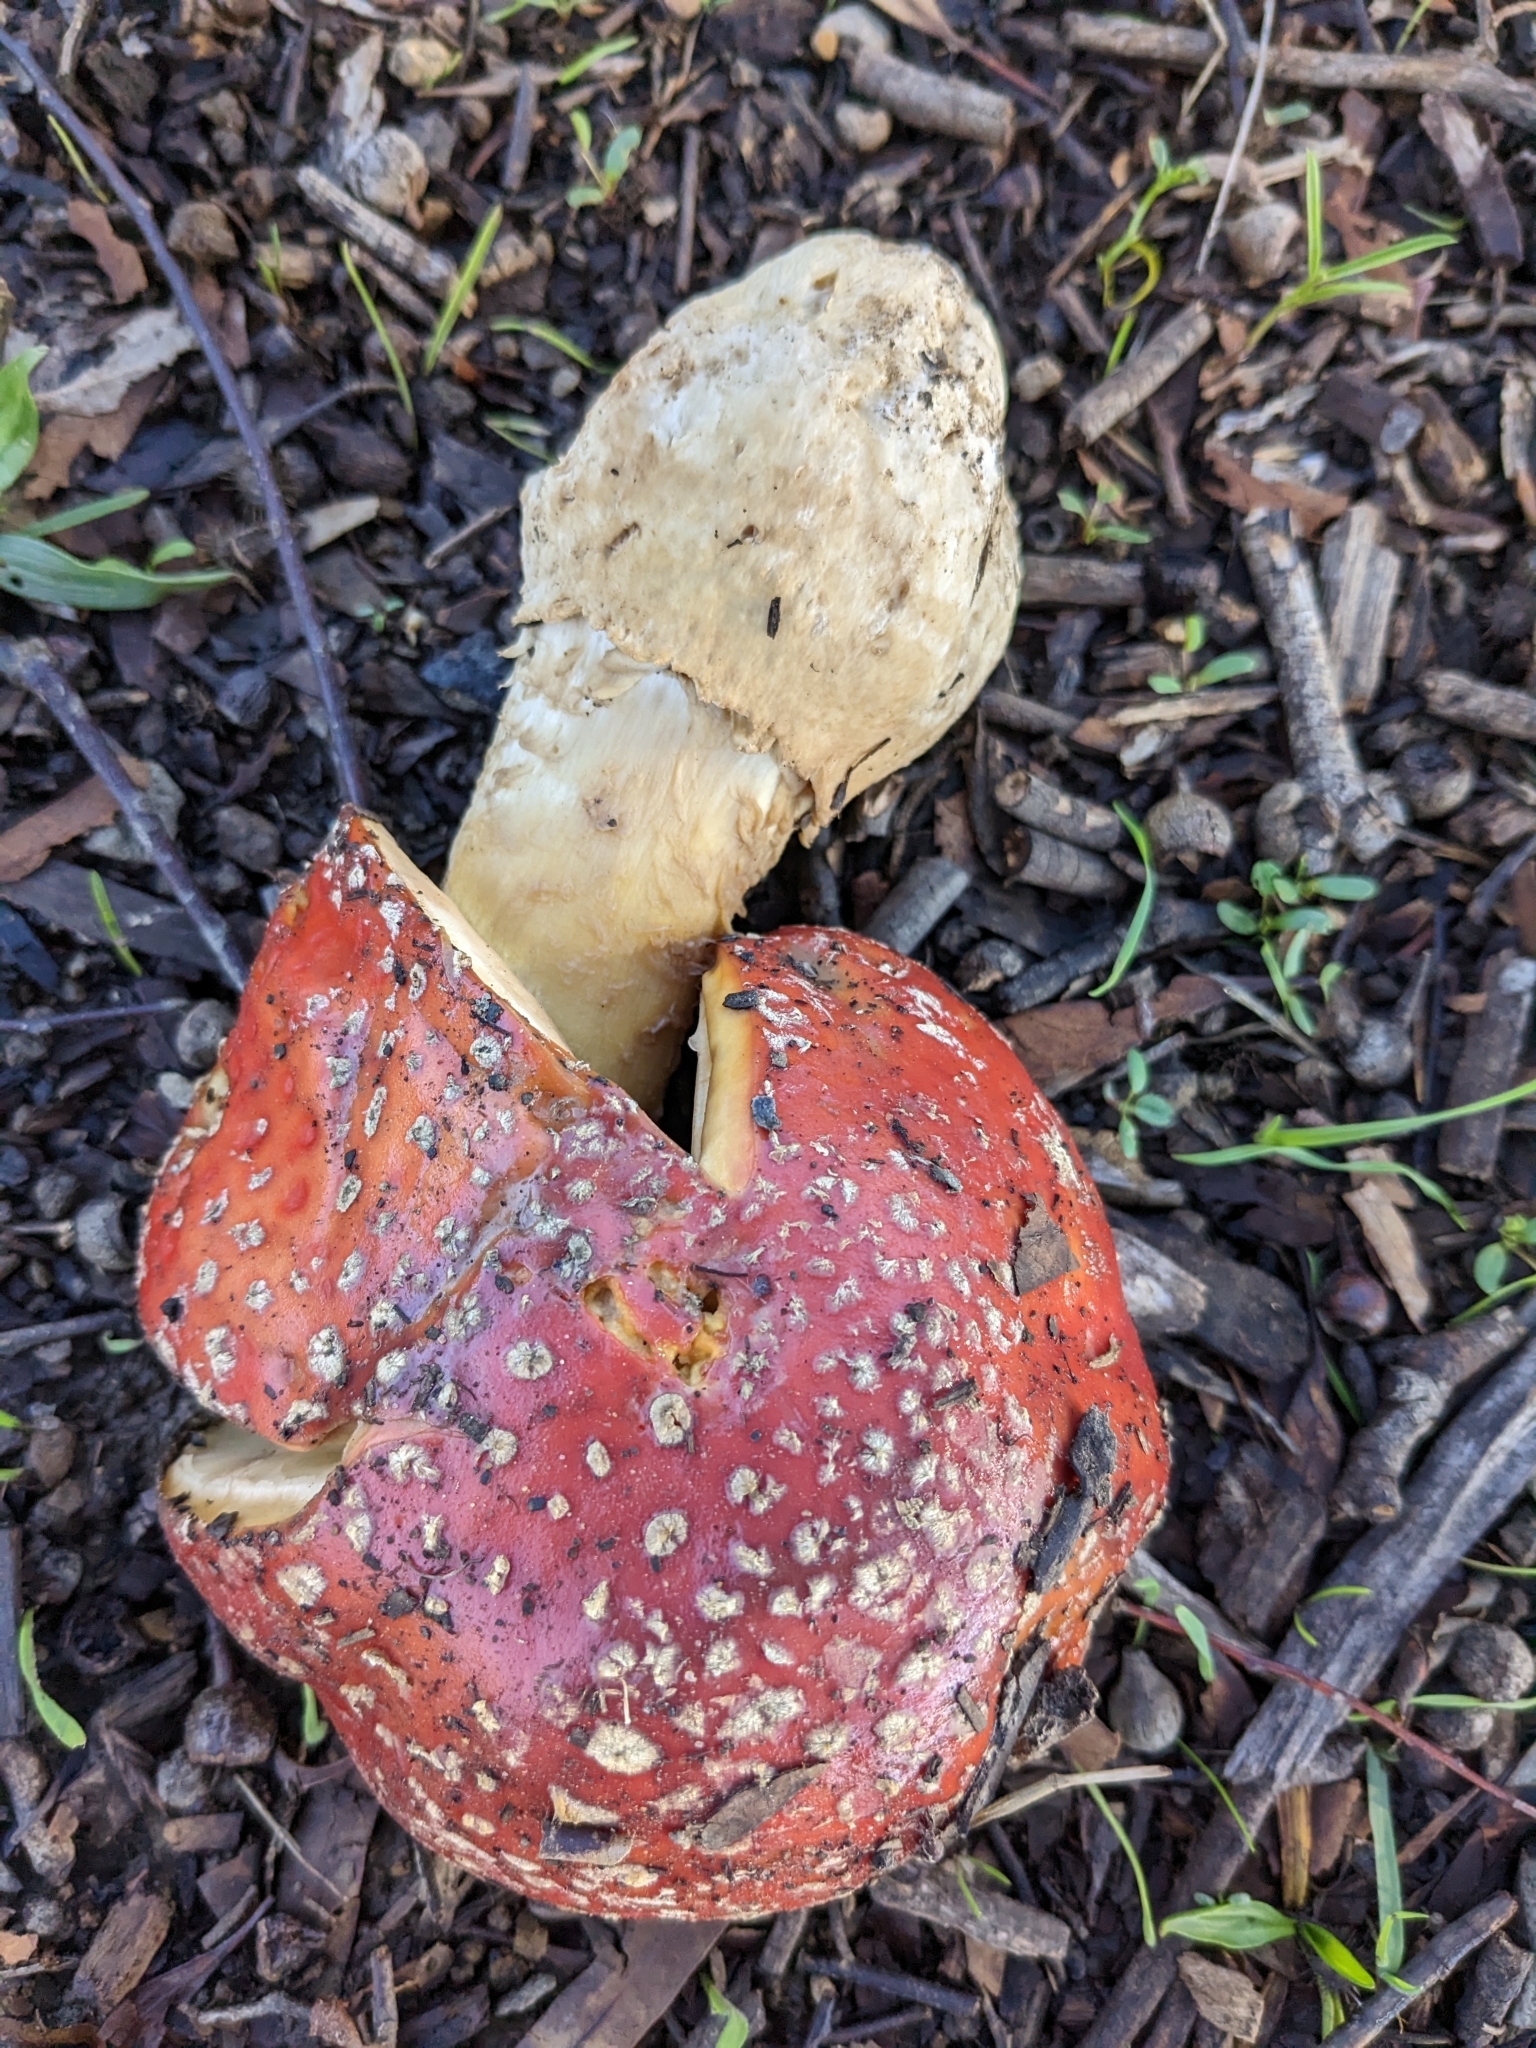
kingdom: Fungi
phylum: Basidiomycota
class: Agaricomycetes
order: Agaricales
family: Amanitaceae
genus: Amanita
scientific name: Amanita muscaria
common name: Fly agaric
